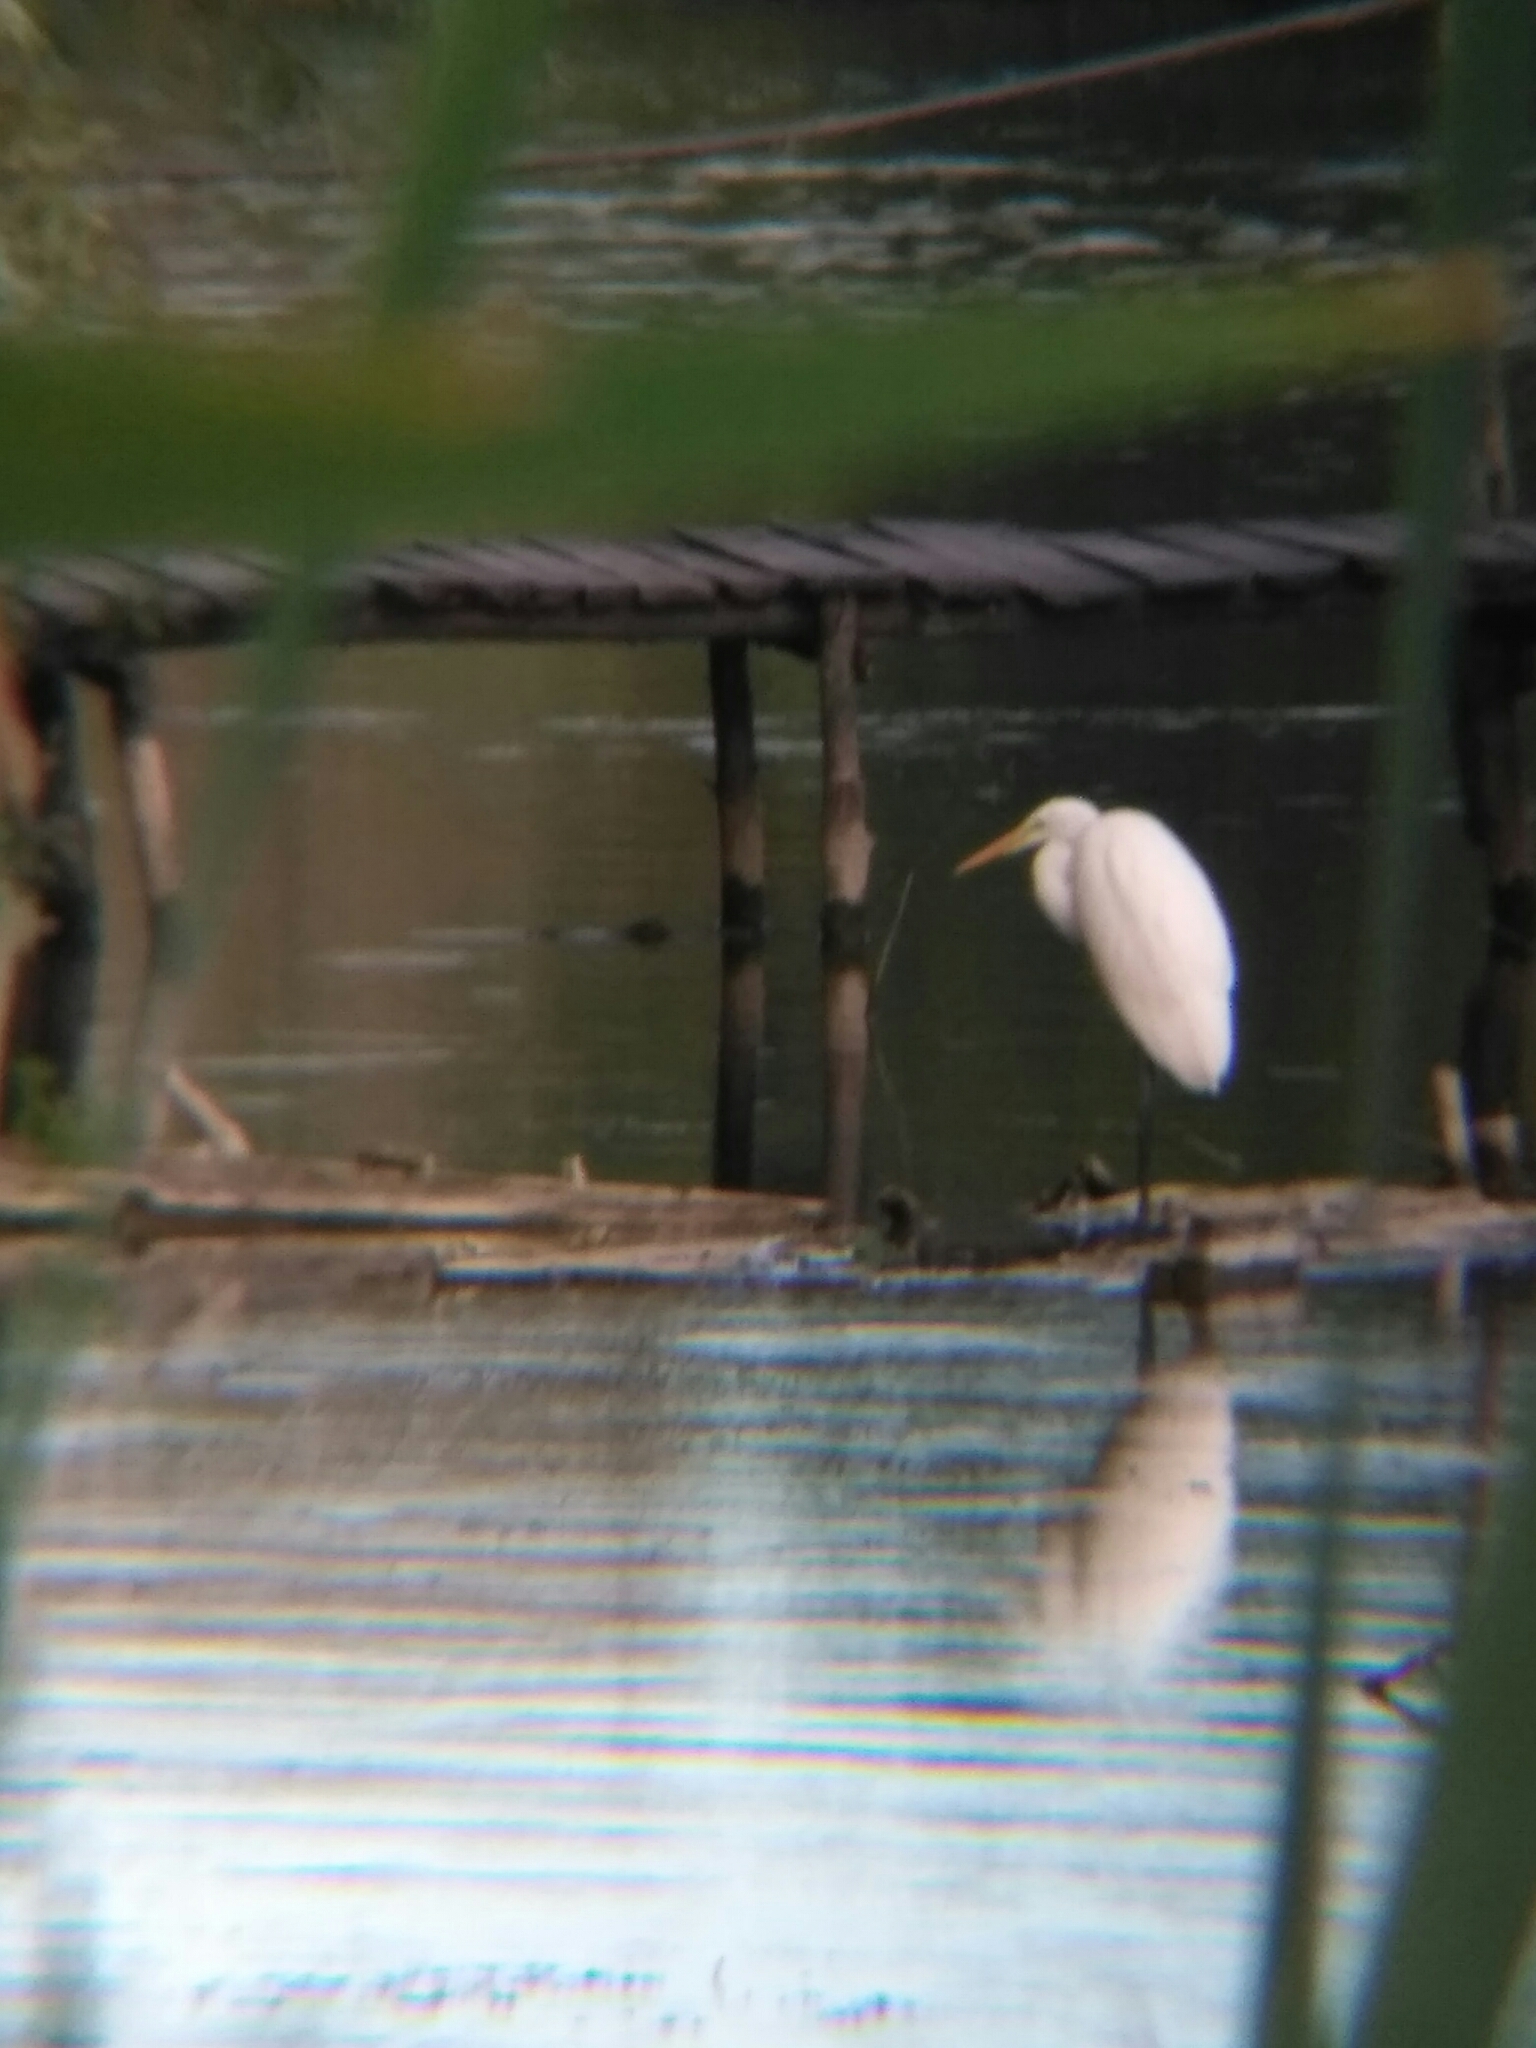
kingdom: Animalia
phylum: Chordata
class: Aves
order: Pelecaniformes
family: Ardeidae
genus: Ardea
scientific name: Ardea alba
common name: Great egret
